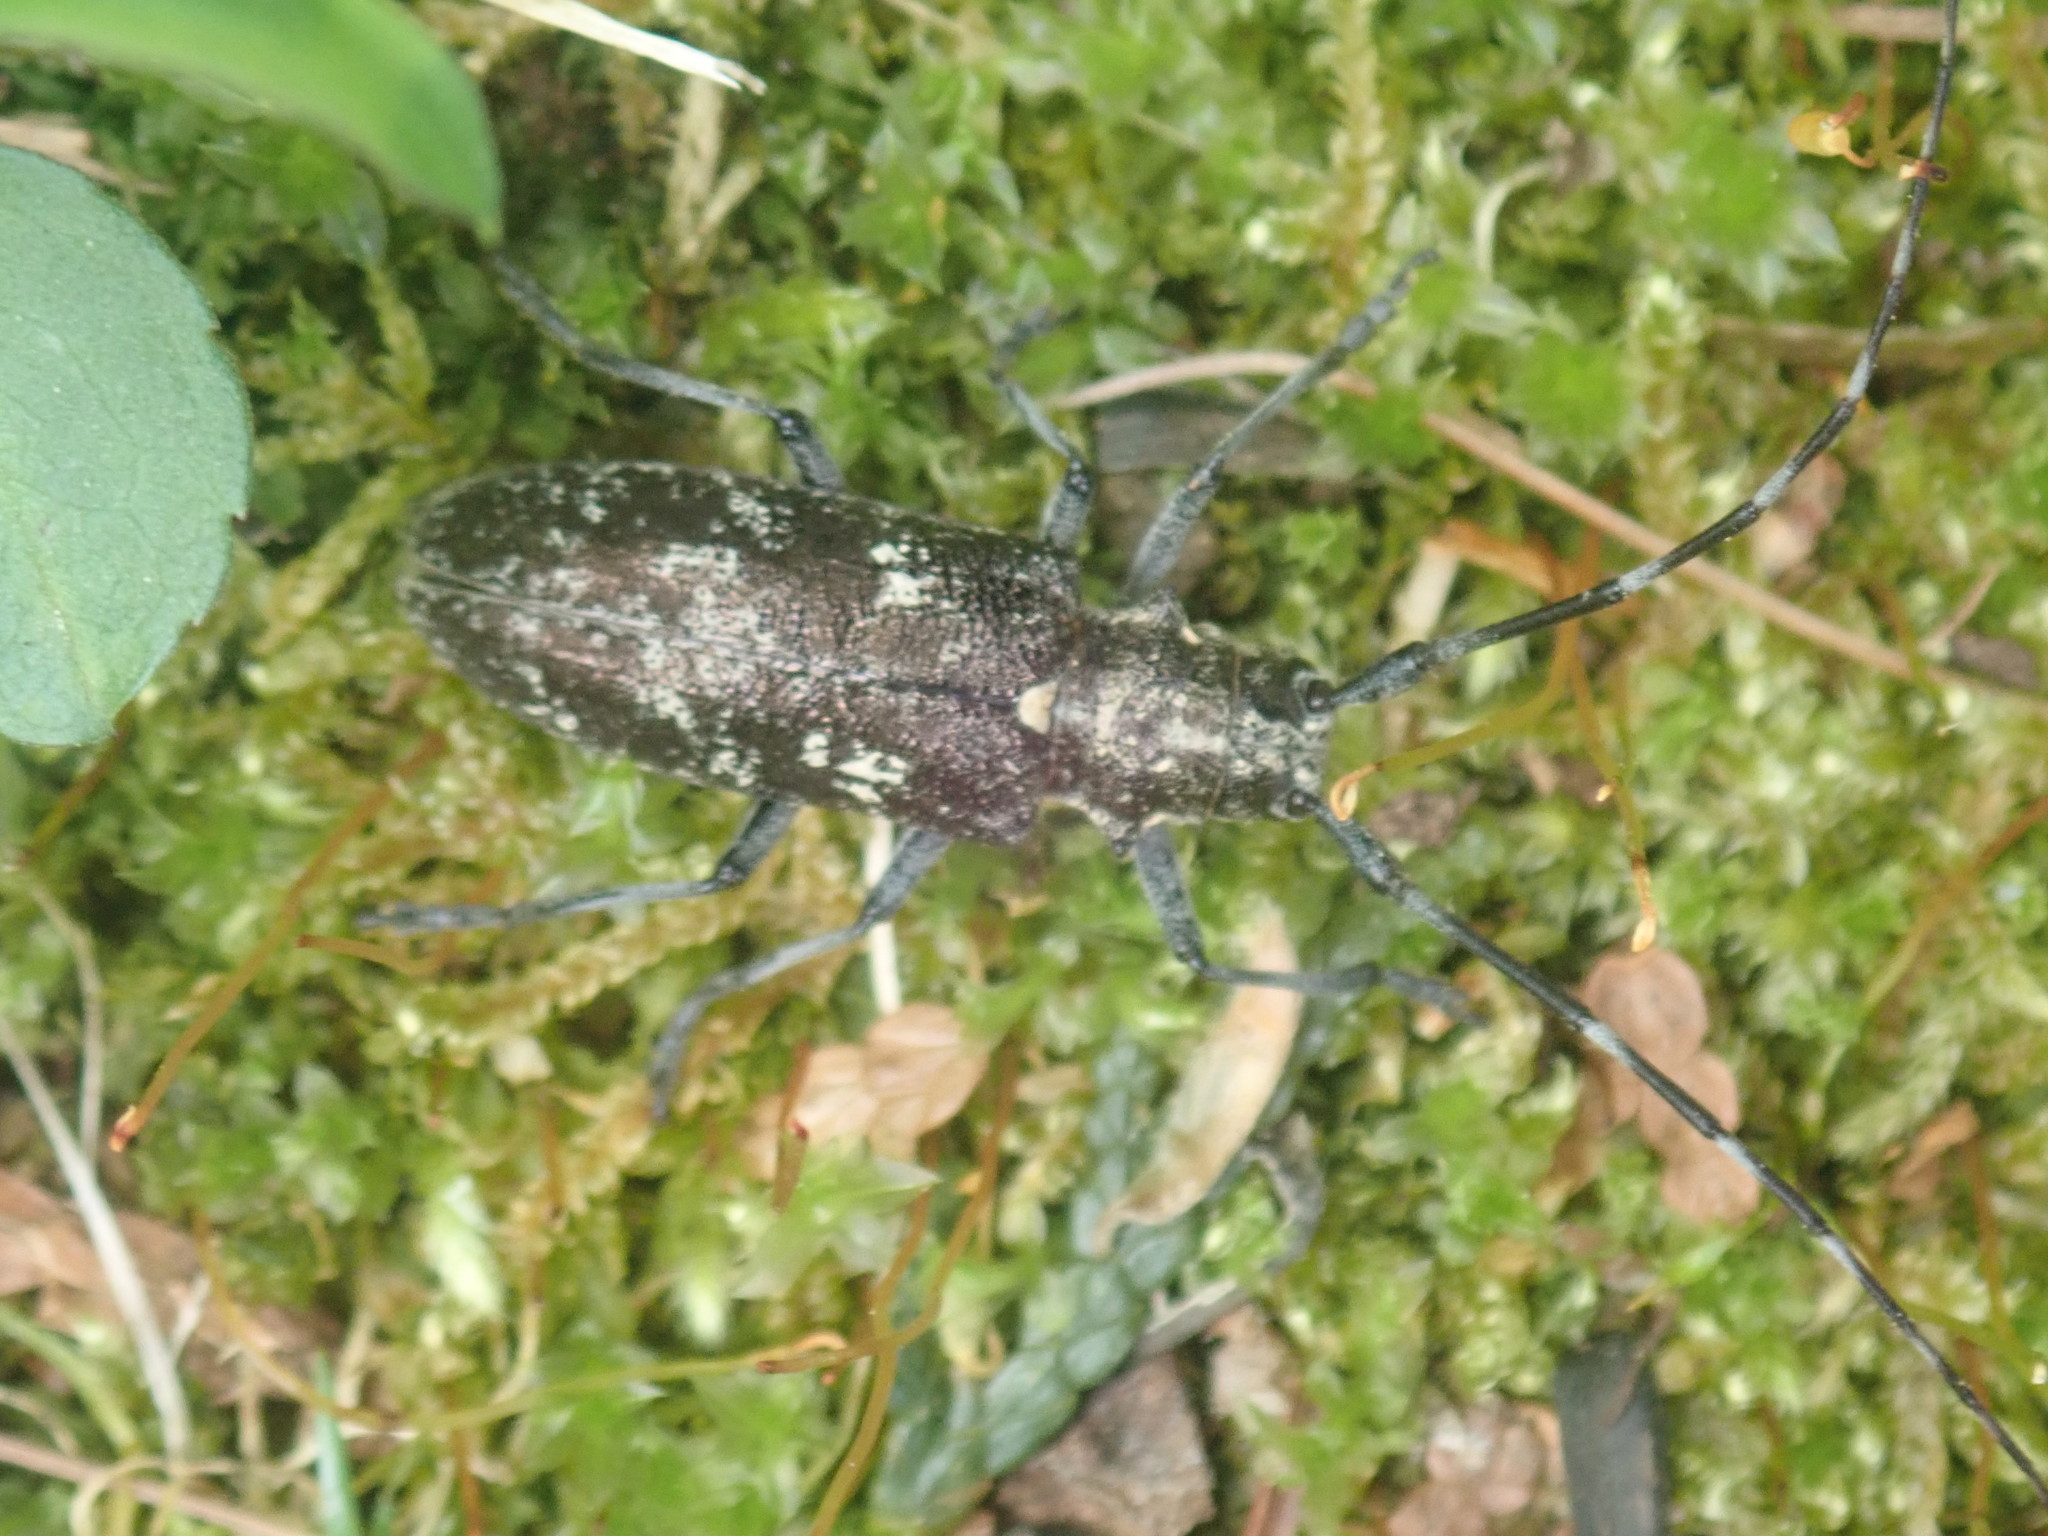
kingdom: Animalia
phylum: Arthropoda
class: Insecta
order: Coleoptera
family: Cerambycidae
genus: Monochamus
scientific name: Monochamus scutellatus
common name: White-spotted sawyer beetle
